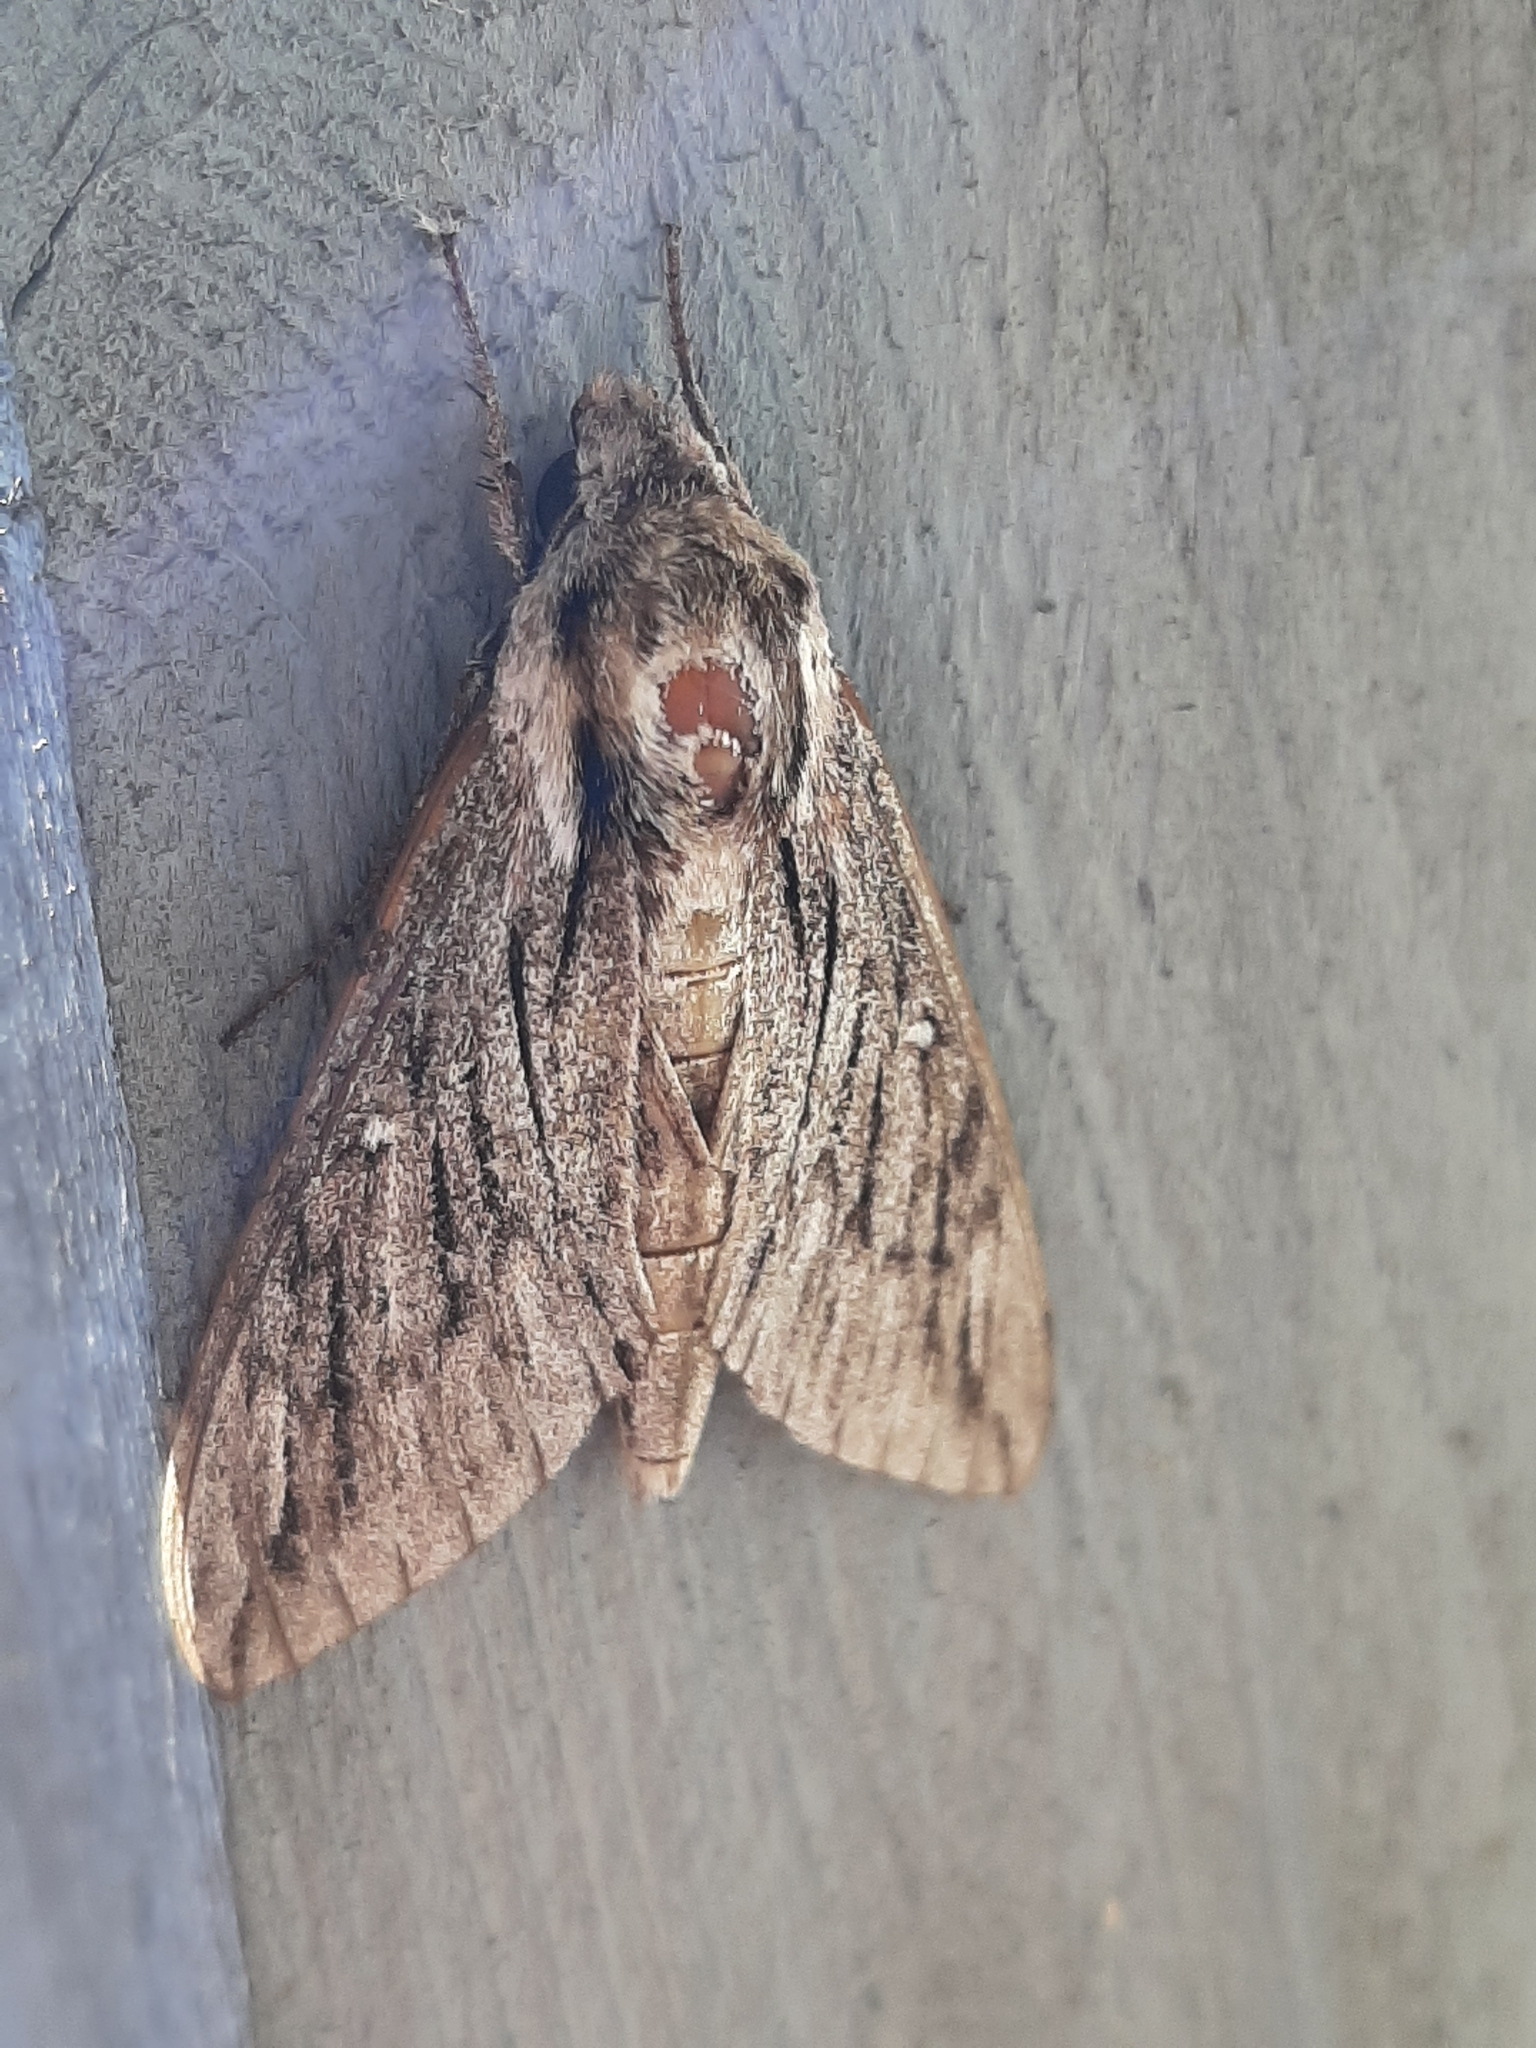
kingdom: Animalia
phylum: Arthropoda
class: Insecta
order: Lepidoptera
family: Sphingidae
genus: Paratrea
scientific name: Paratrea plebeja
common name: Plebian sphinx
